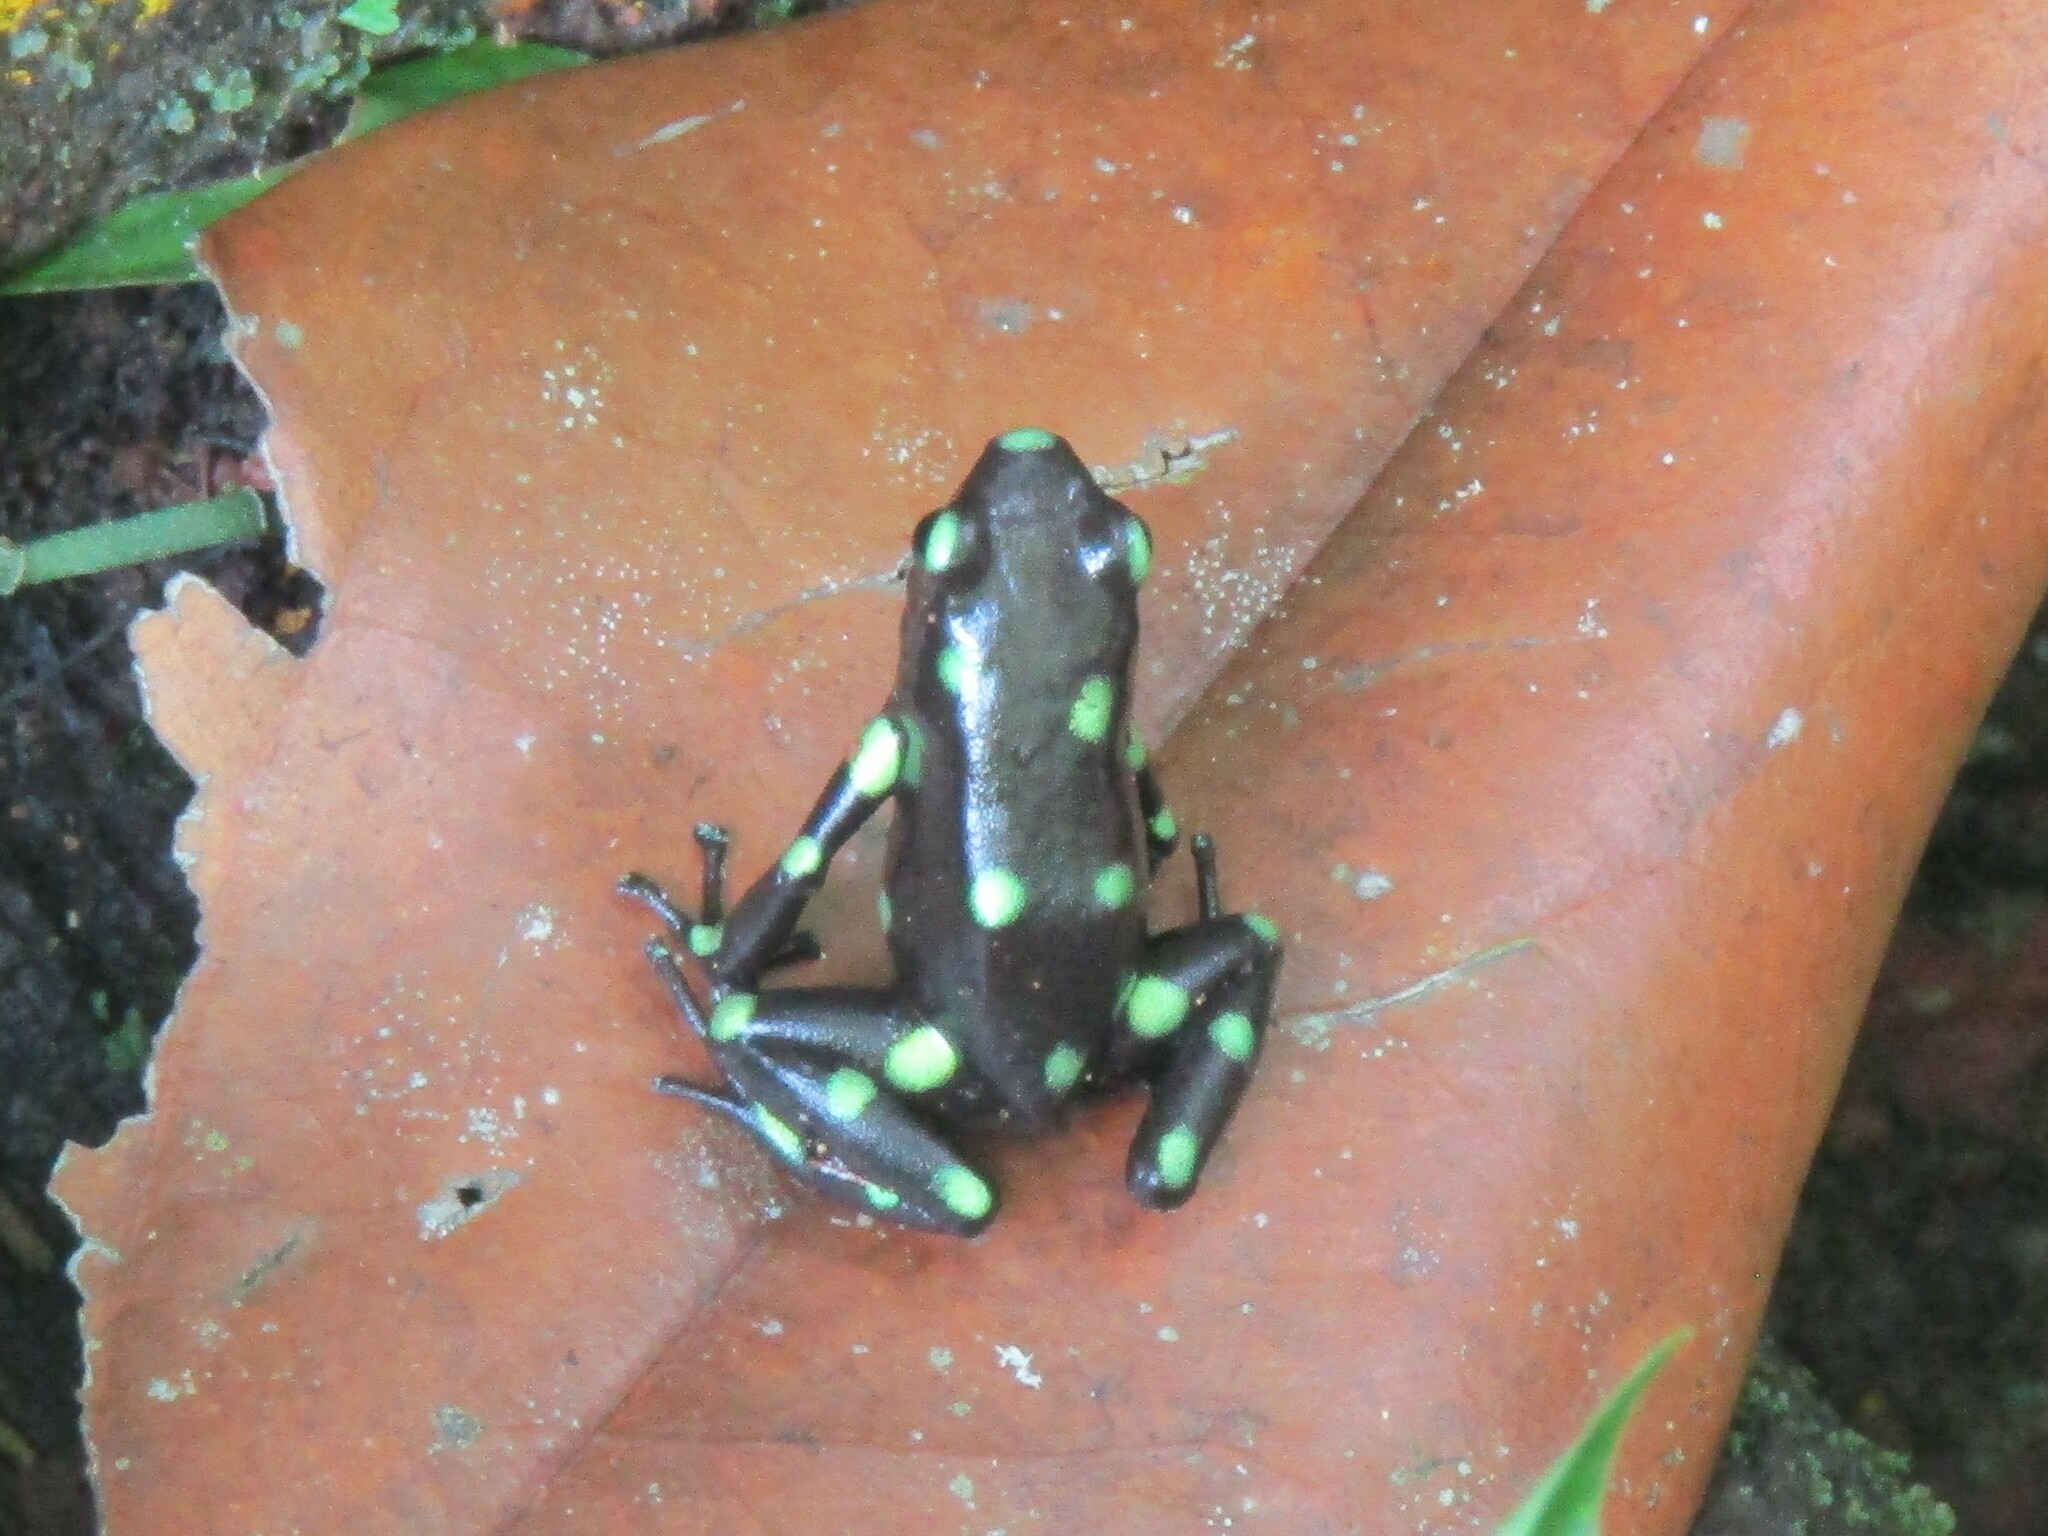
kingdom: Animalia
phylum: Chordata
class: Amphibia
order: Anura
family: Dendrobatidae
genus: Dendrobates
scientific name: Dendrobates auratus
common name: Green and black poison dart frog
